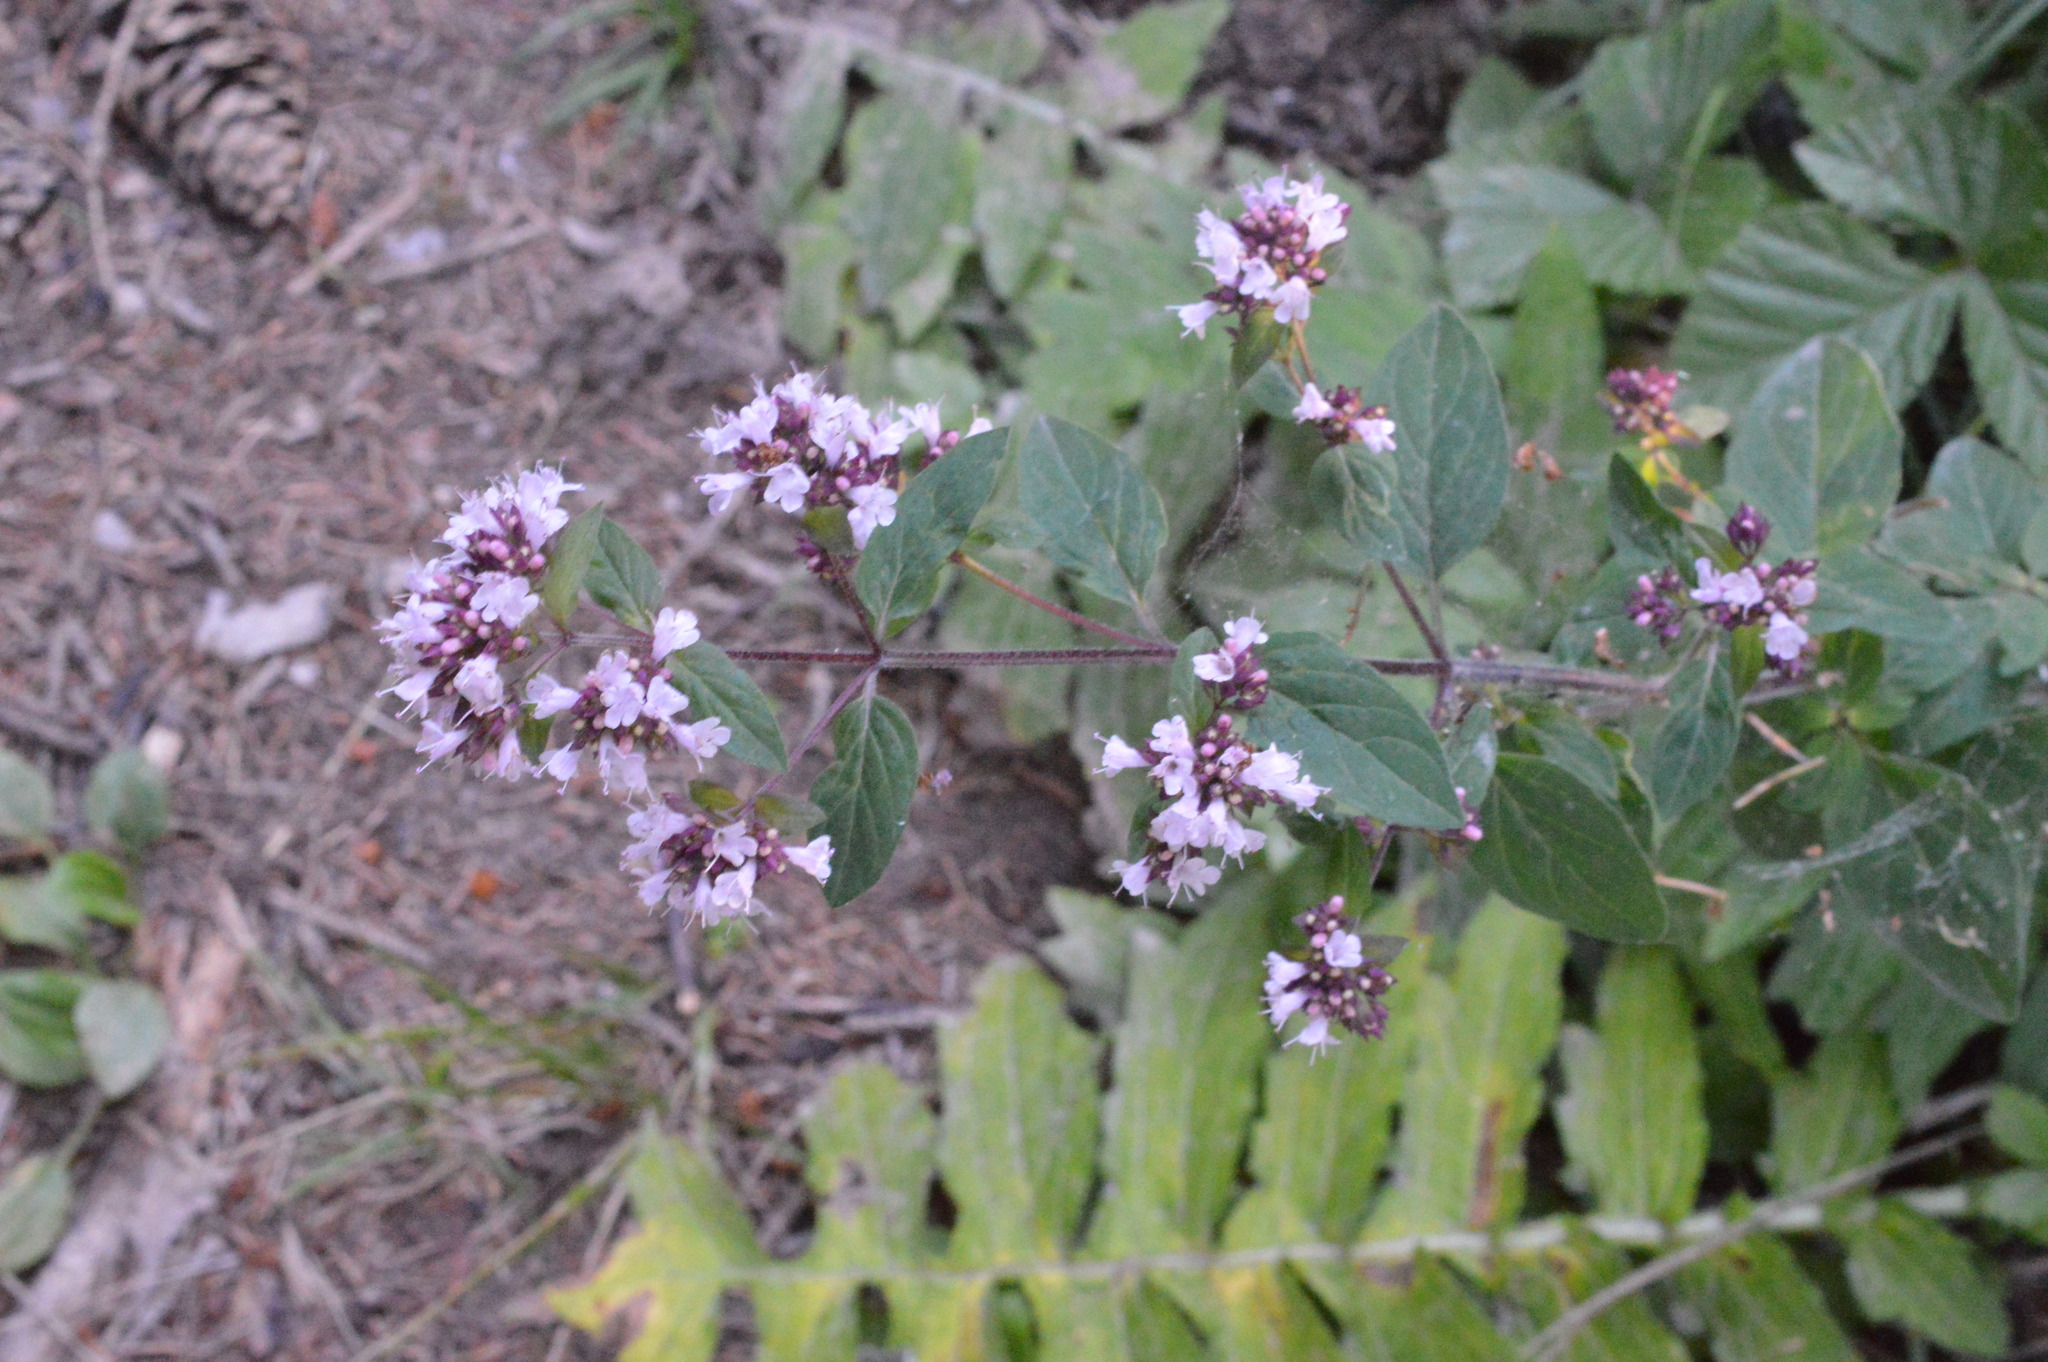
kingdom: Plantae
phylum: Tracheophyta
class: Magnoliopsida
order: Lamiales
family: Lamiaceae
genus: Origanum
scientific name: Origanum vulgare
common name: Wild marjoram
